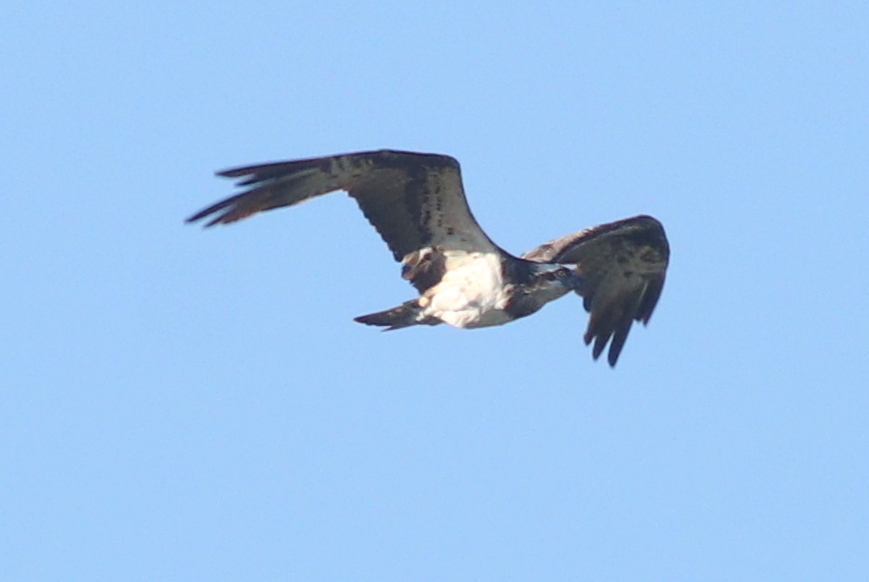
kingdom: Animalia
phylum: Chordata
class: Aves
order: Accipitriformes
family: Pandionidae
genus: Pandion
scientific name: Pandion haliaetus
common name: Osprey
